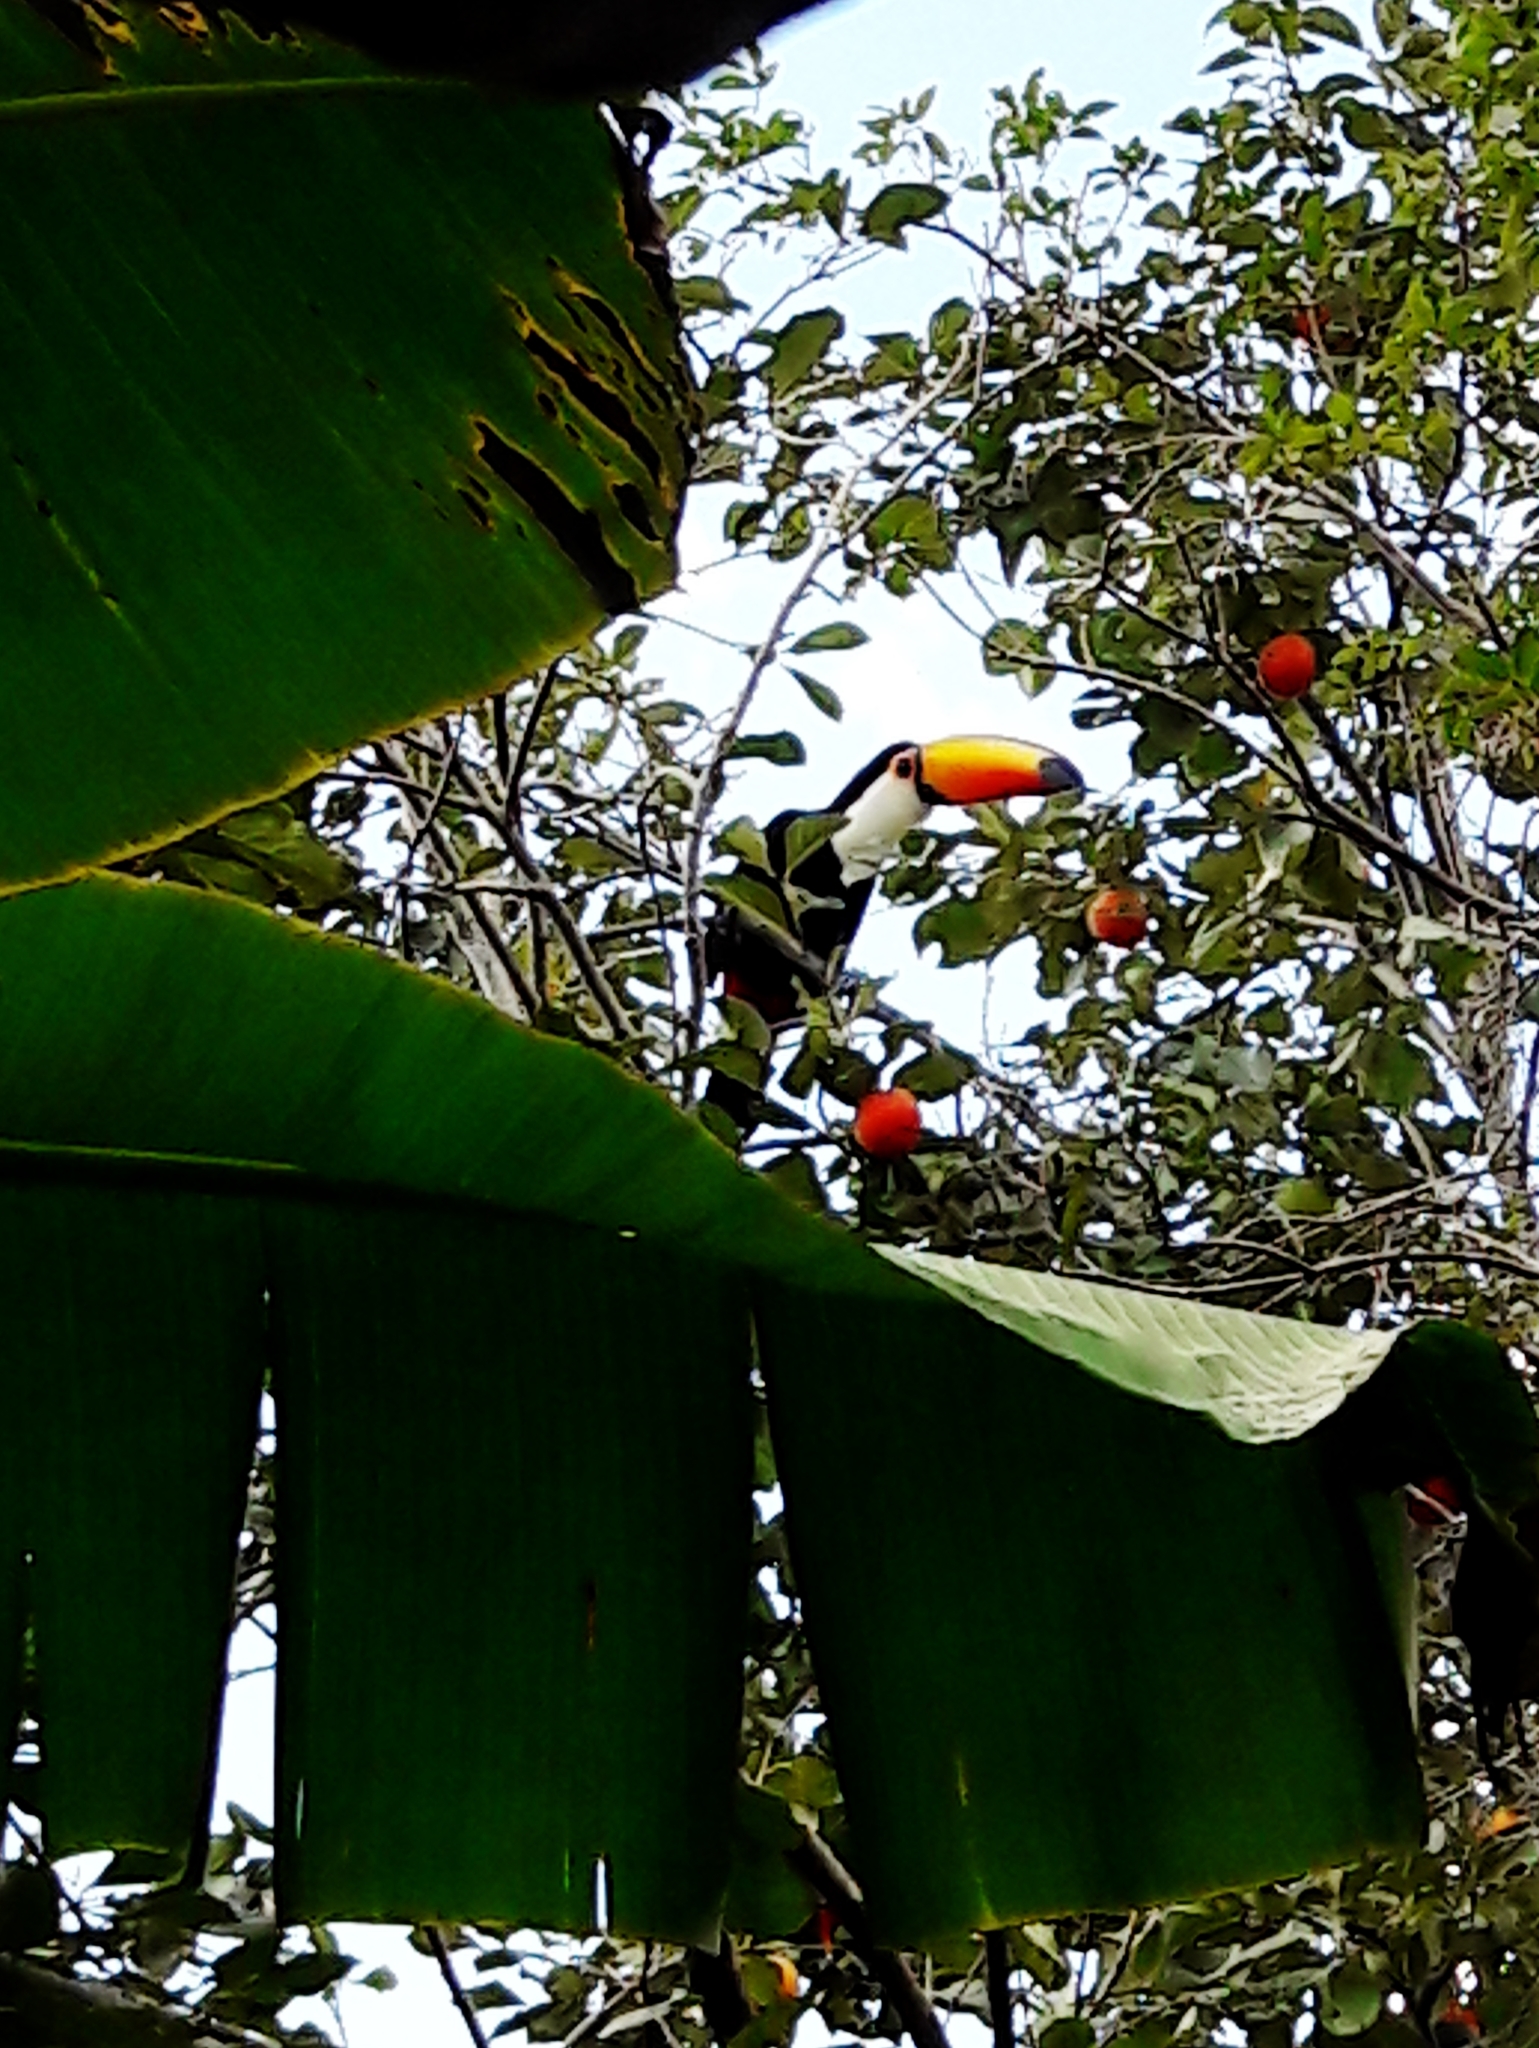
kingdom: Animalia
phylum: Chordata
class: Aves
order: Piciformes
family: Ramphastidae
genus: Ramphastos
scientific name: Ramphastos toco
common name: Toco toucan
